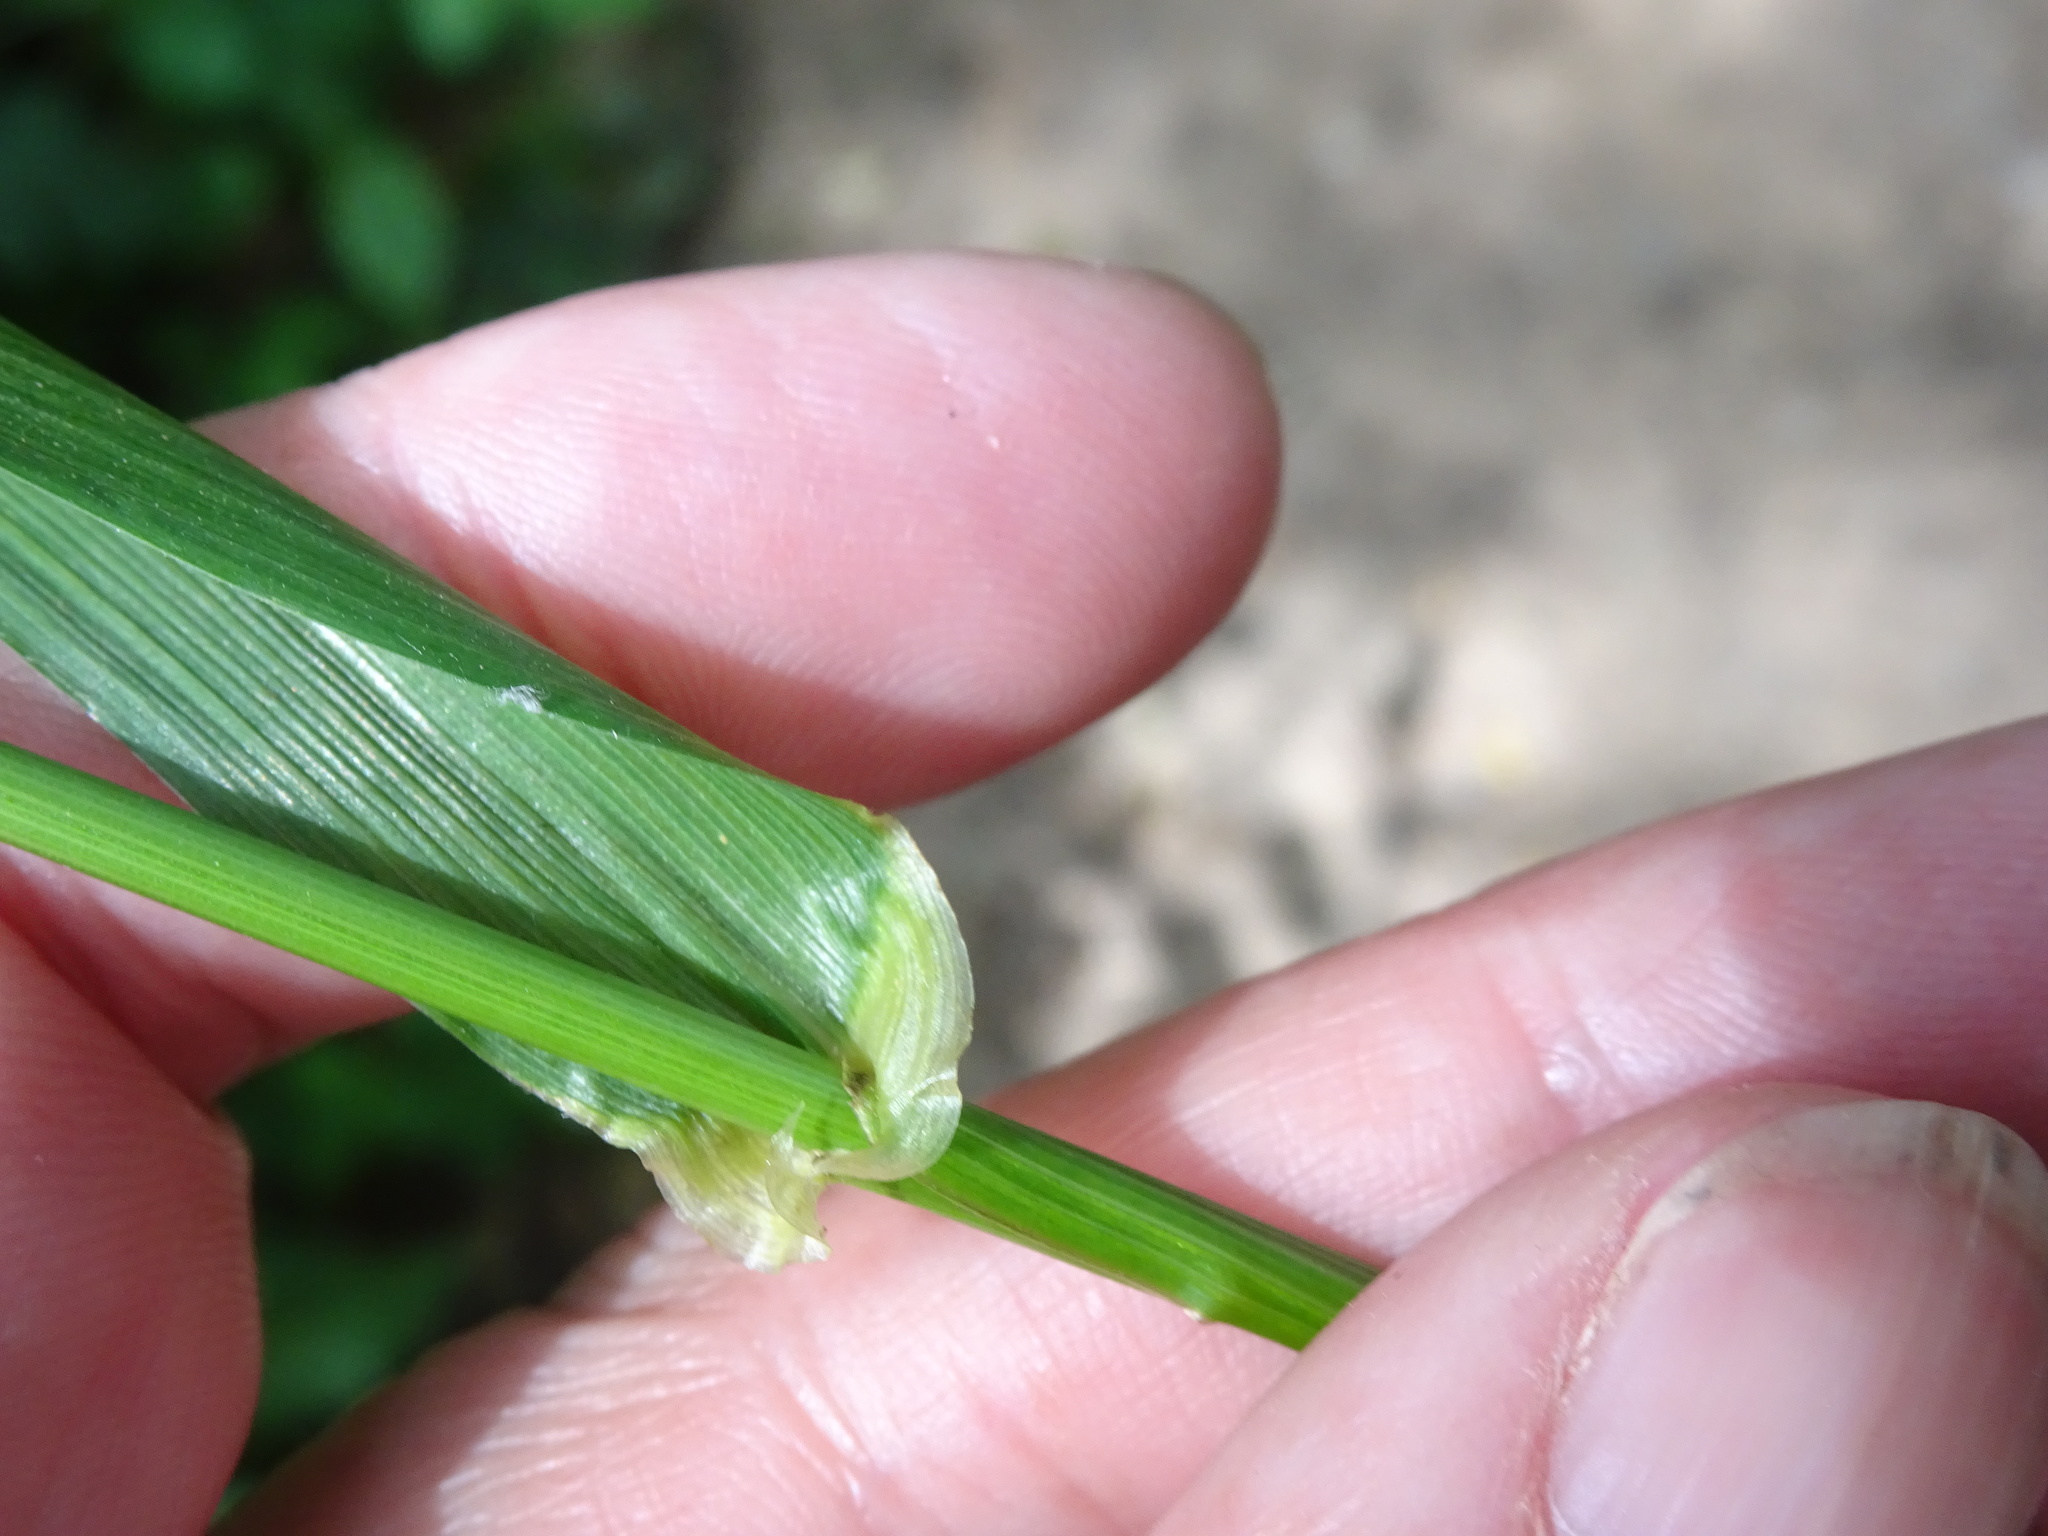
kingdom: Plantae
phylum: Tracheophyta
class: Liliopsida
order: Poales
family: Poaceae
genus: Lolium
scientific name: Lolium giganteum
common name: Giant fescue
